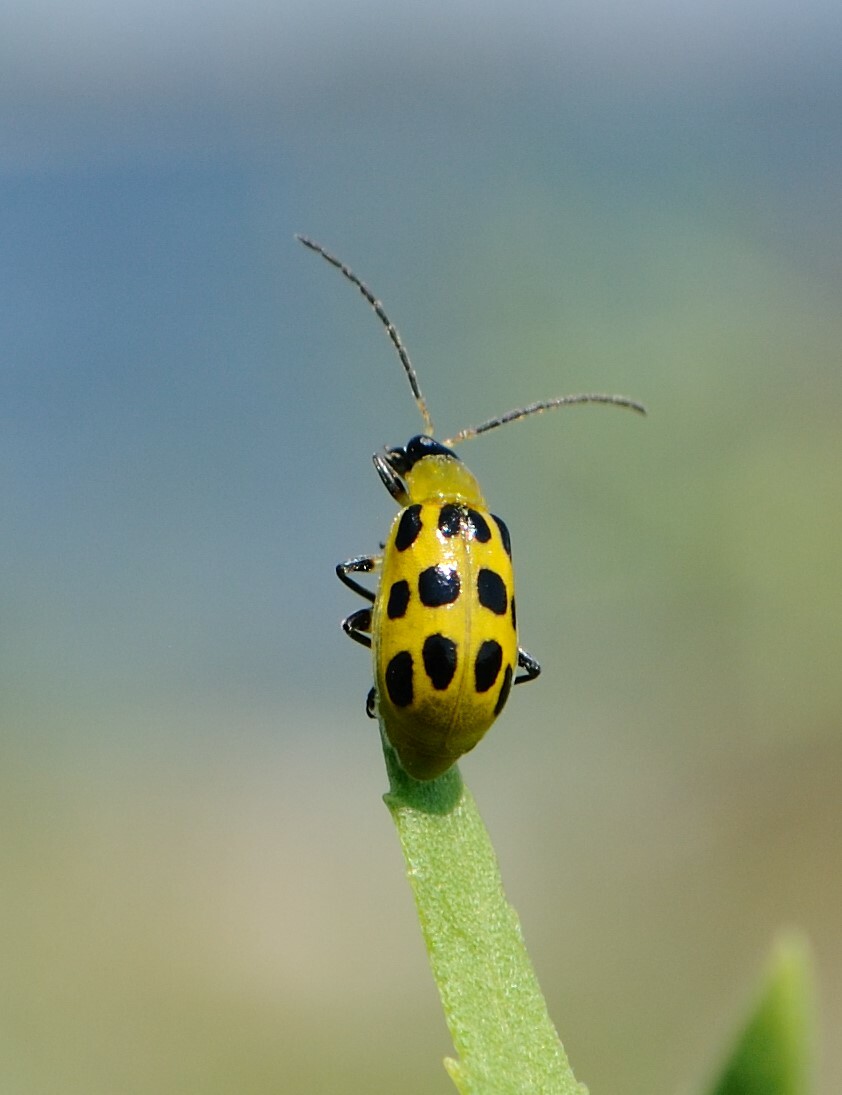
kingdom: Animalia
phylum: Arthropoda
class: Insecta
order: Coleoptera
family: Chrysomelidae
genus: Diabrotica
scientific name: Diabrotica undecimpunctata
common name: Spotted cucumber beetle
